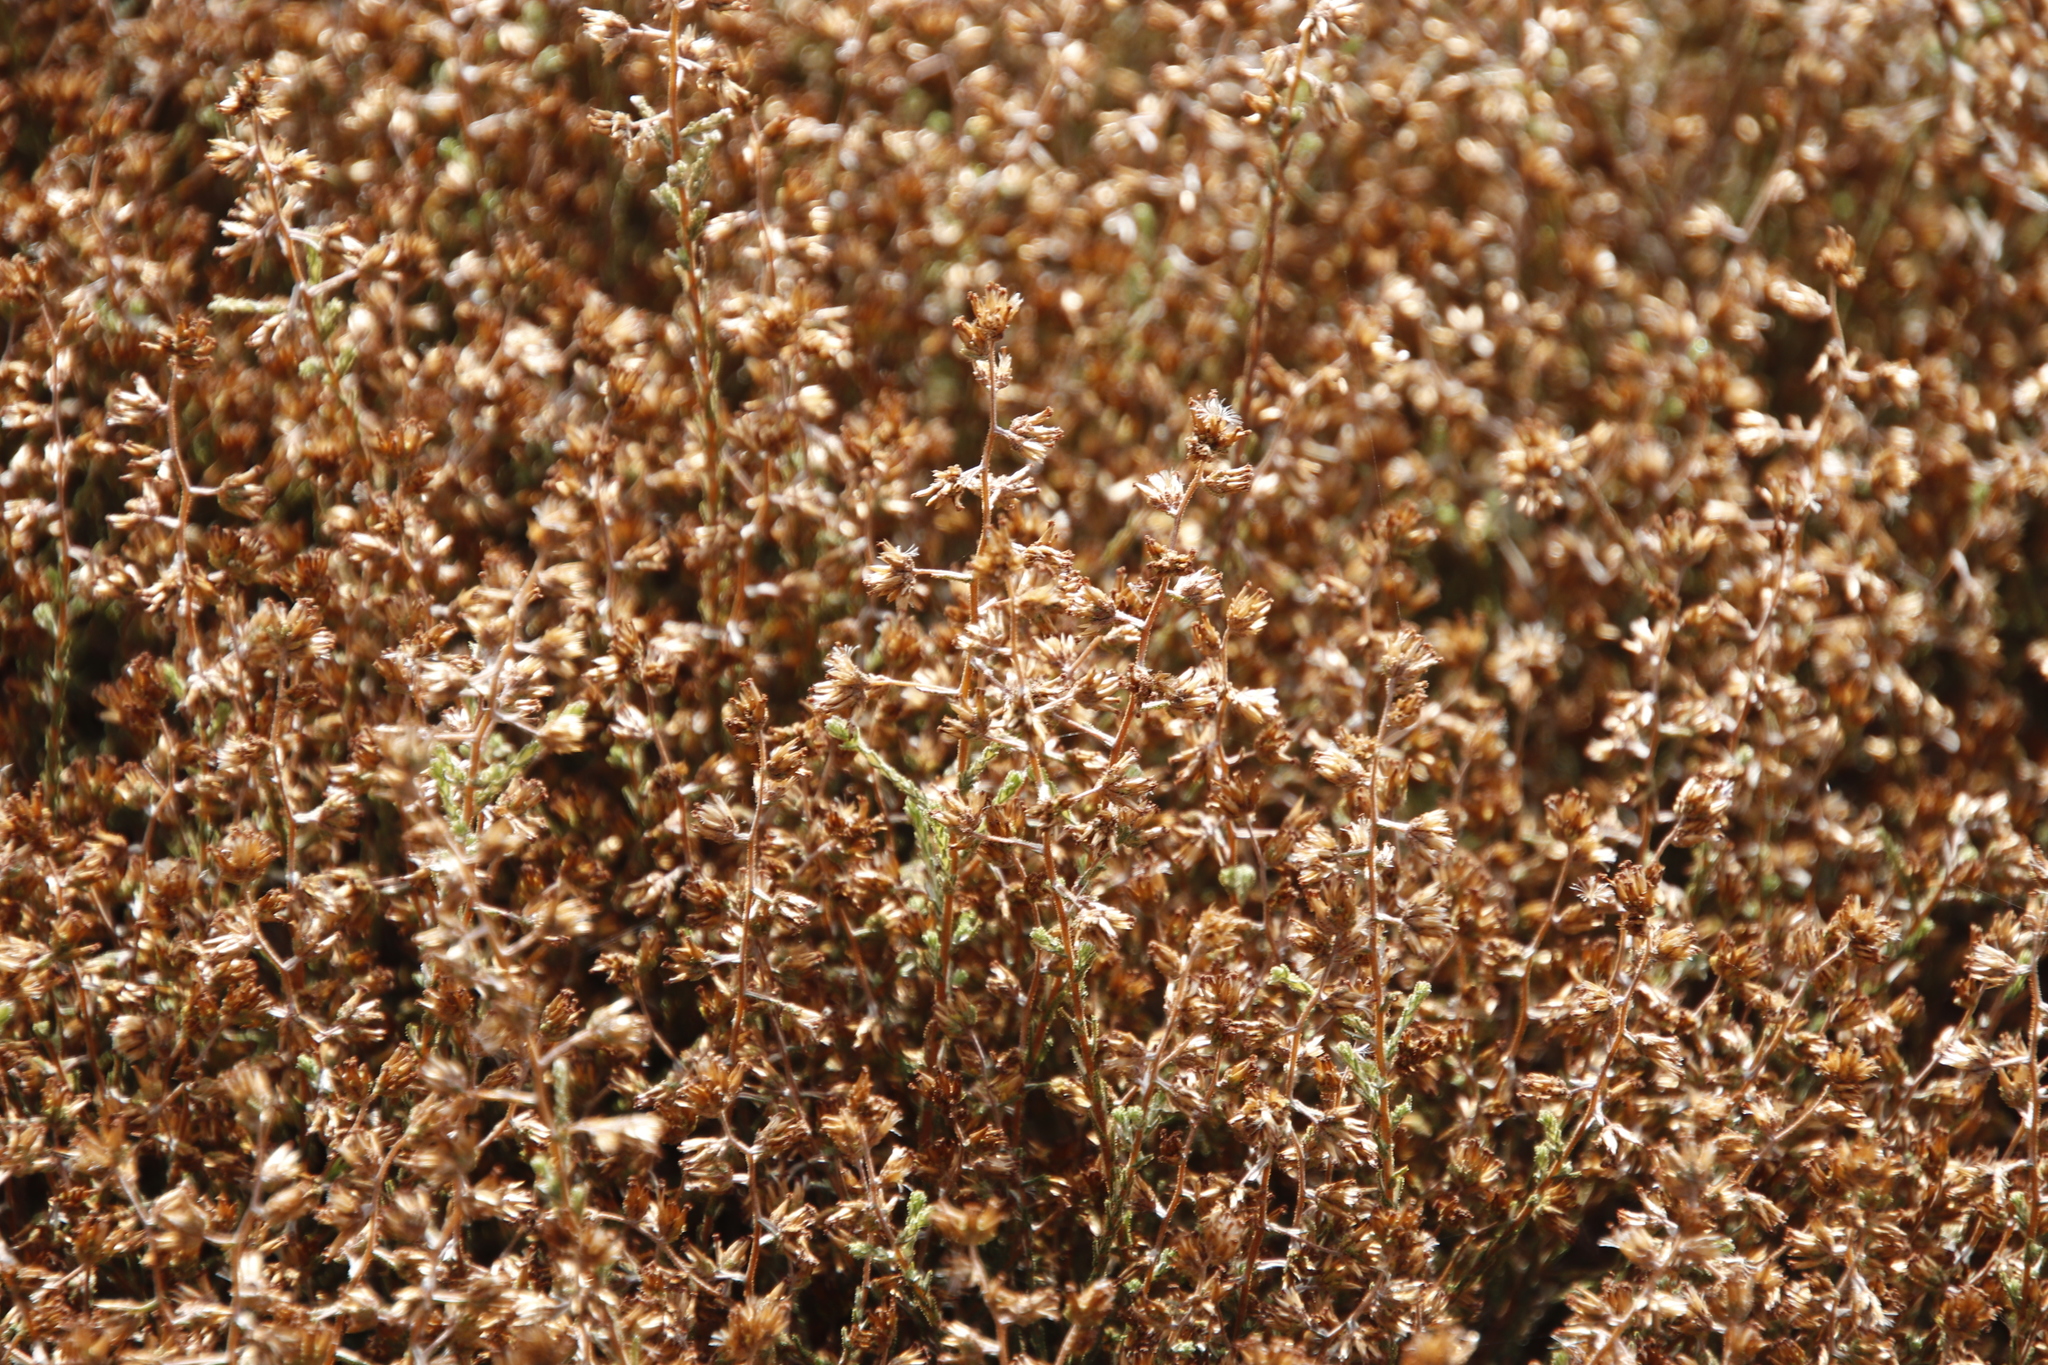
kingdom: Plantae
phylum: Tracheophyta
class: Magnoliopsida
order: Asterales
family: Asteraceae
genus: Myrovernix
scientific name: Myrovernix gnaphaloides
